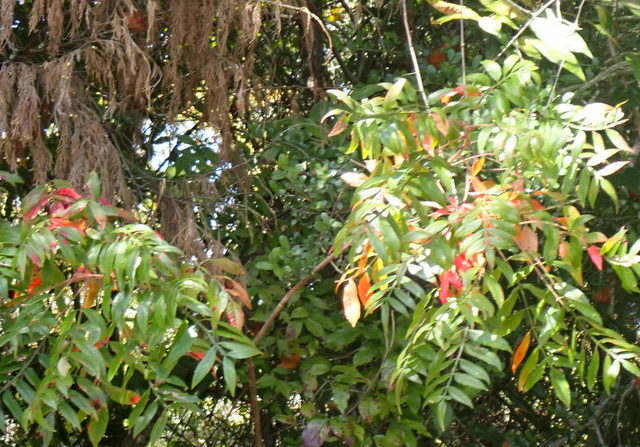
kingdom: Plantae
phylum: Tracheophyta
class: Magnoliopsida
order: Sapindales
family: Anacardiaceae
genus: Rhus
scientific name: Rhus copallina
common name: Shining sumac
